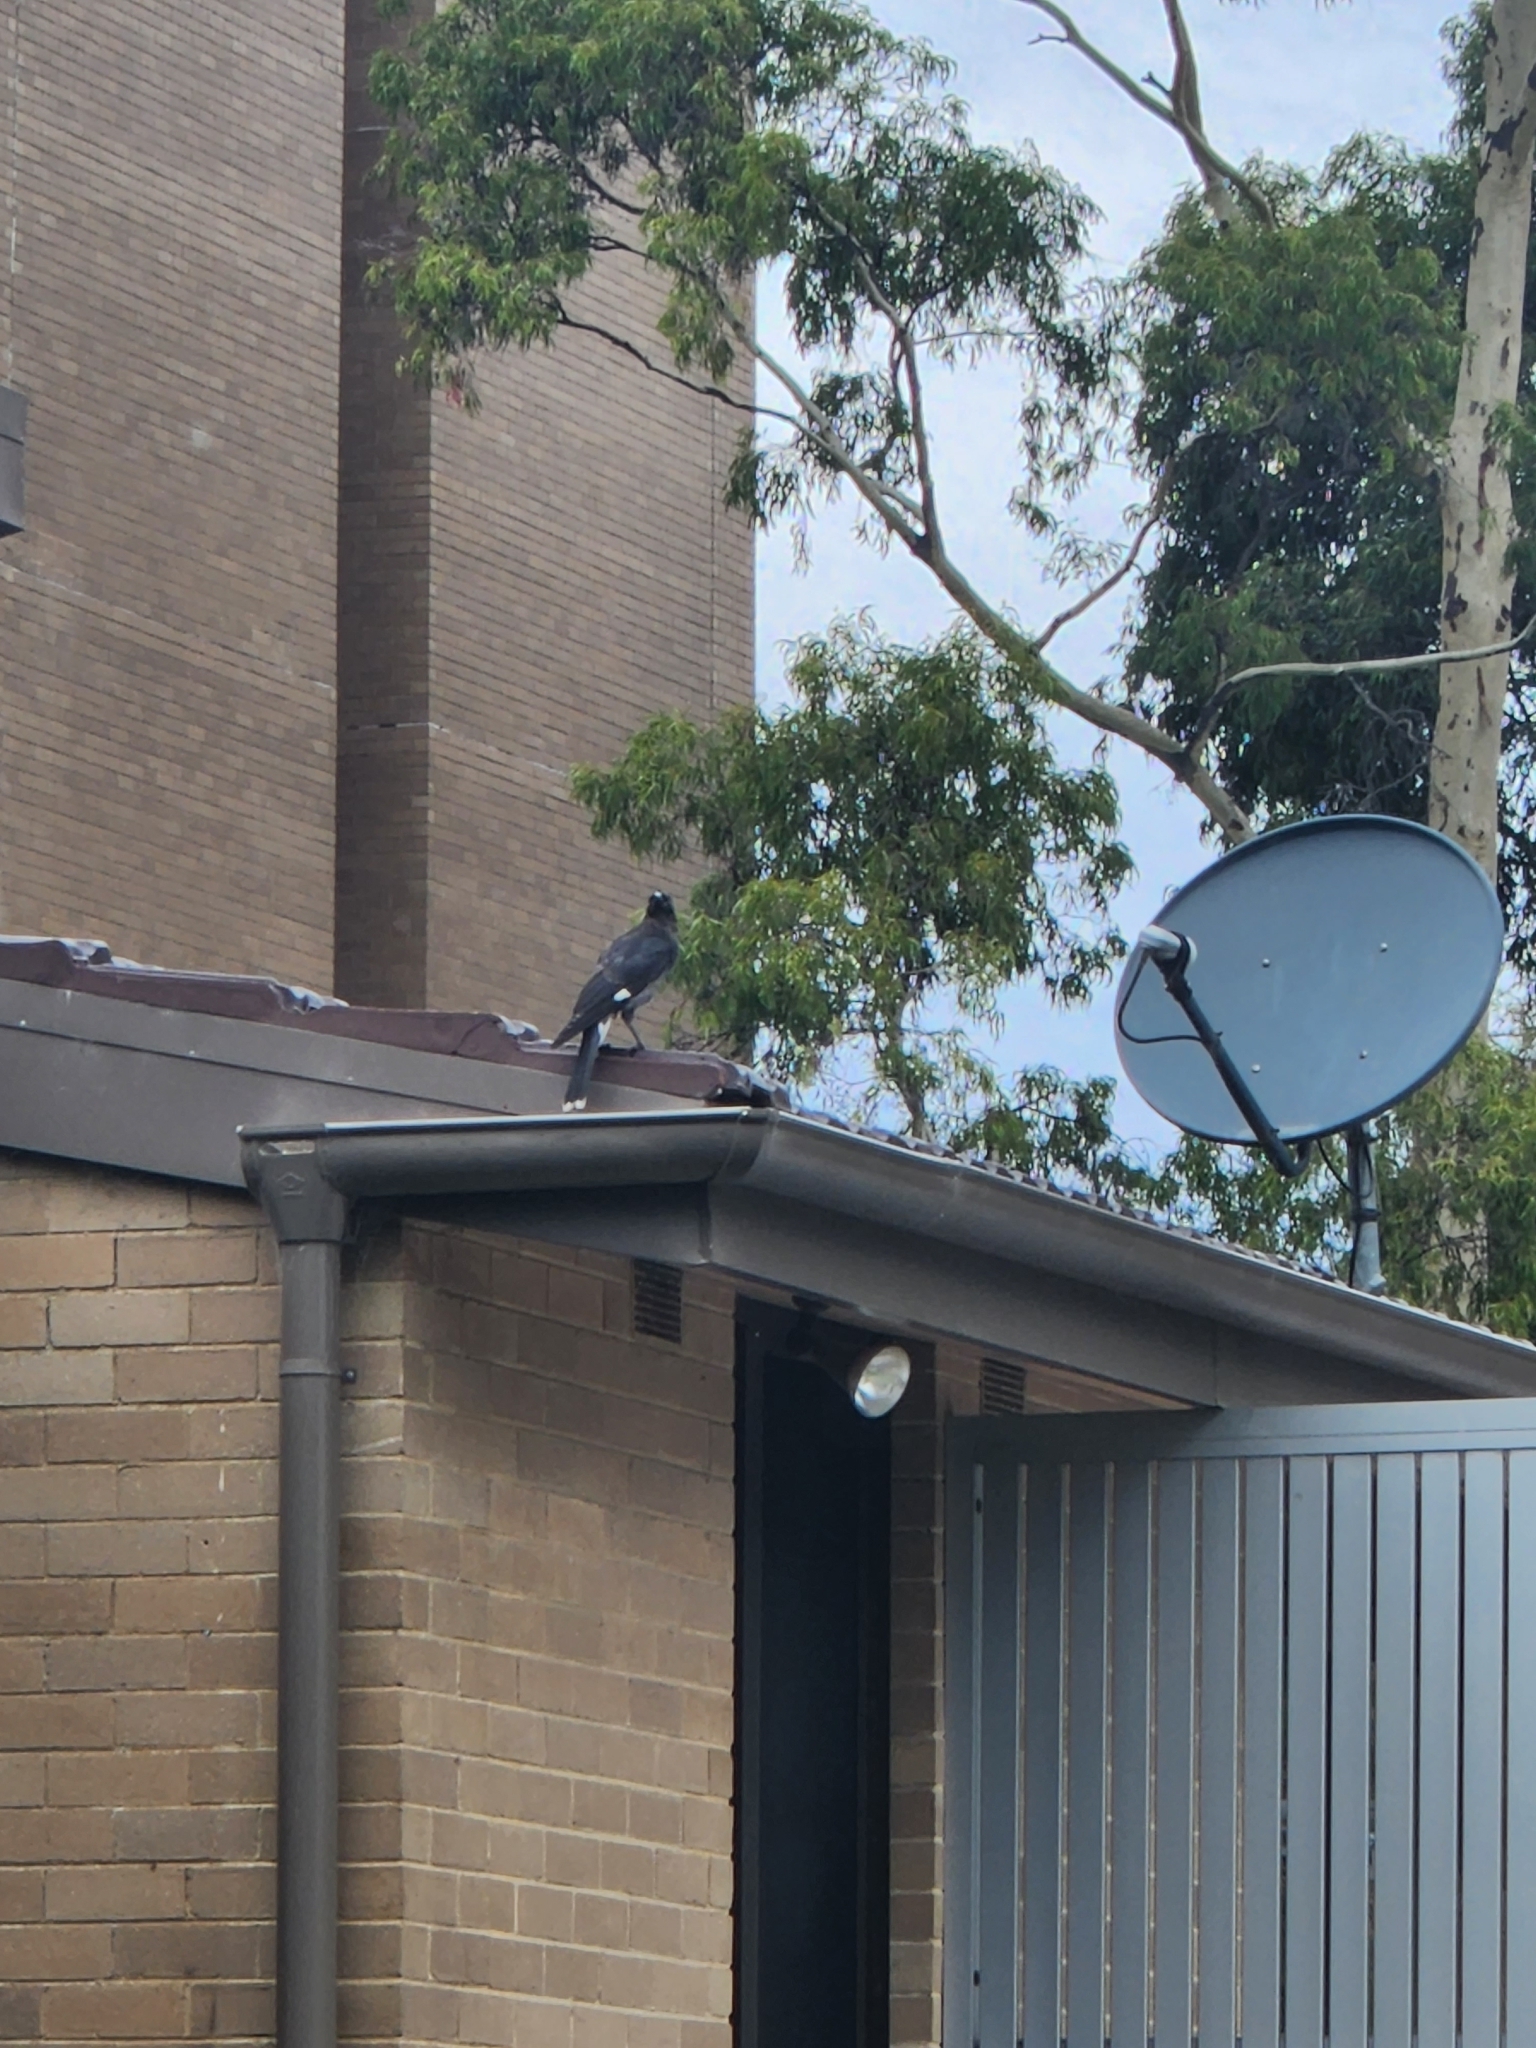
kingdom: Animalia
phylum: Chordata
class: Aves
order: Passeriformes
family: Cracticidae
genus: Strepera
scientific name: Strepera graculina
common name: Pied currawong
